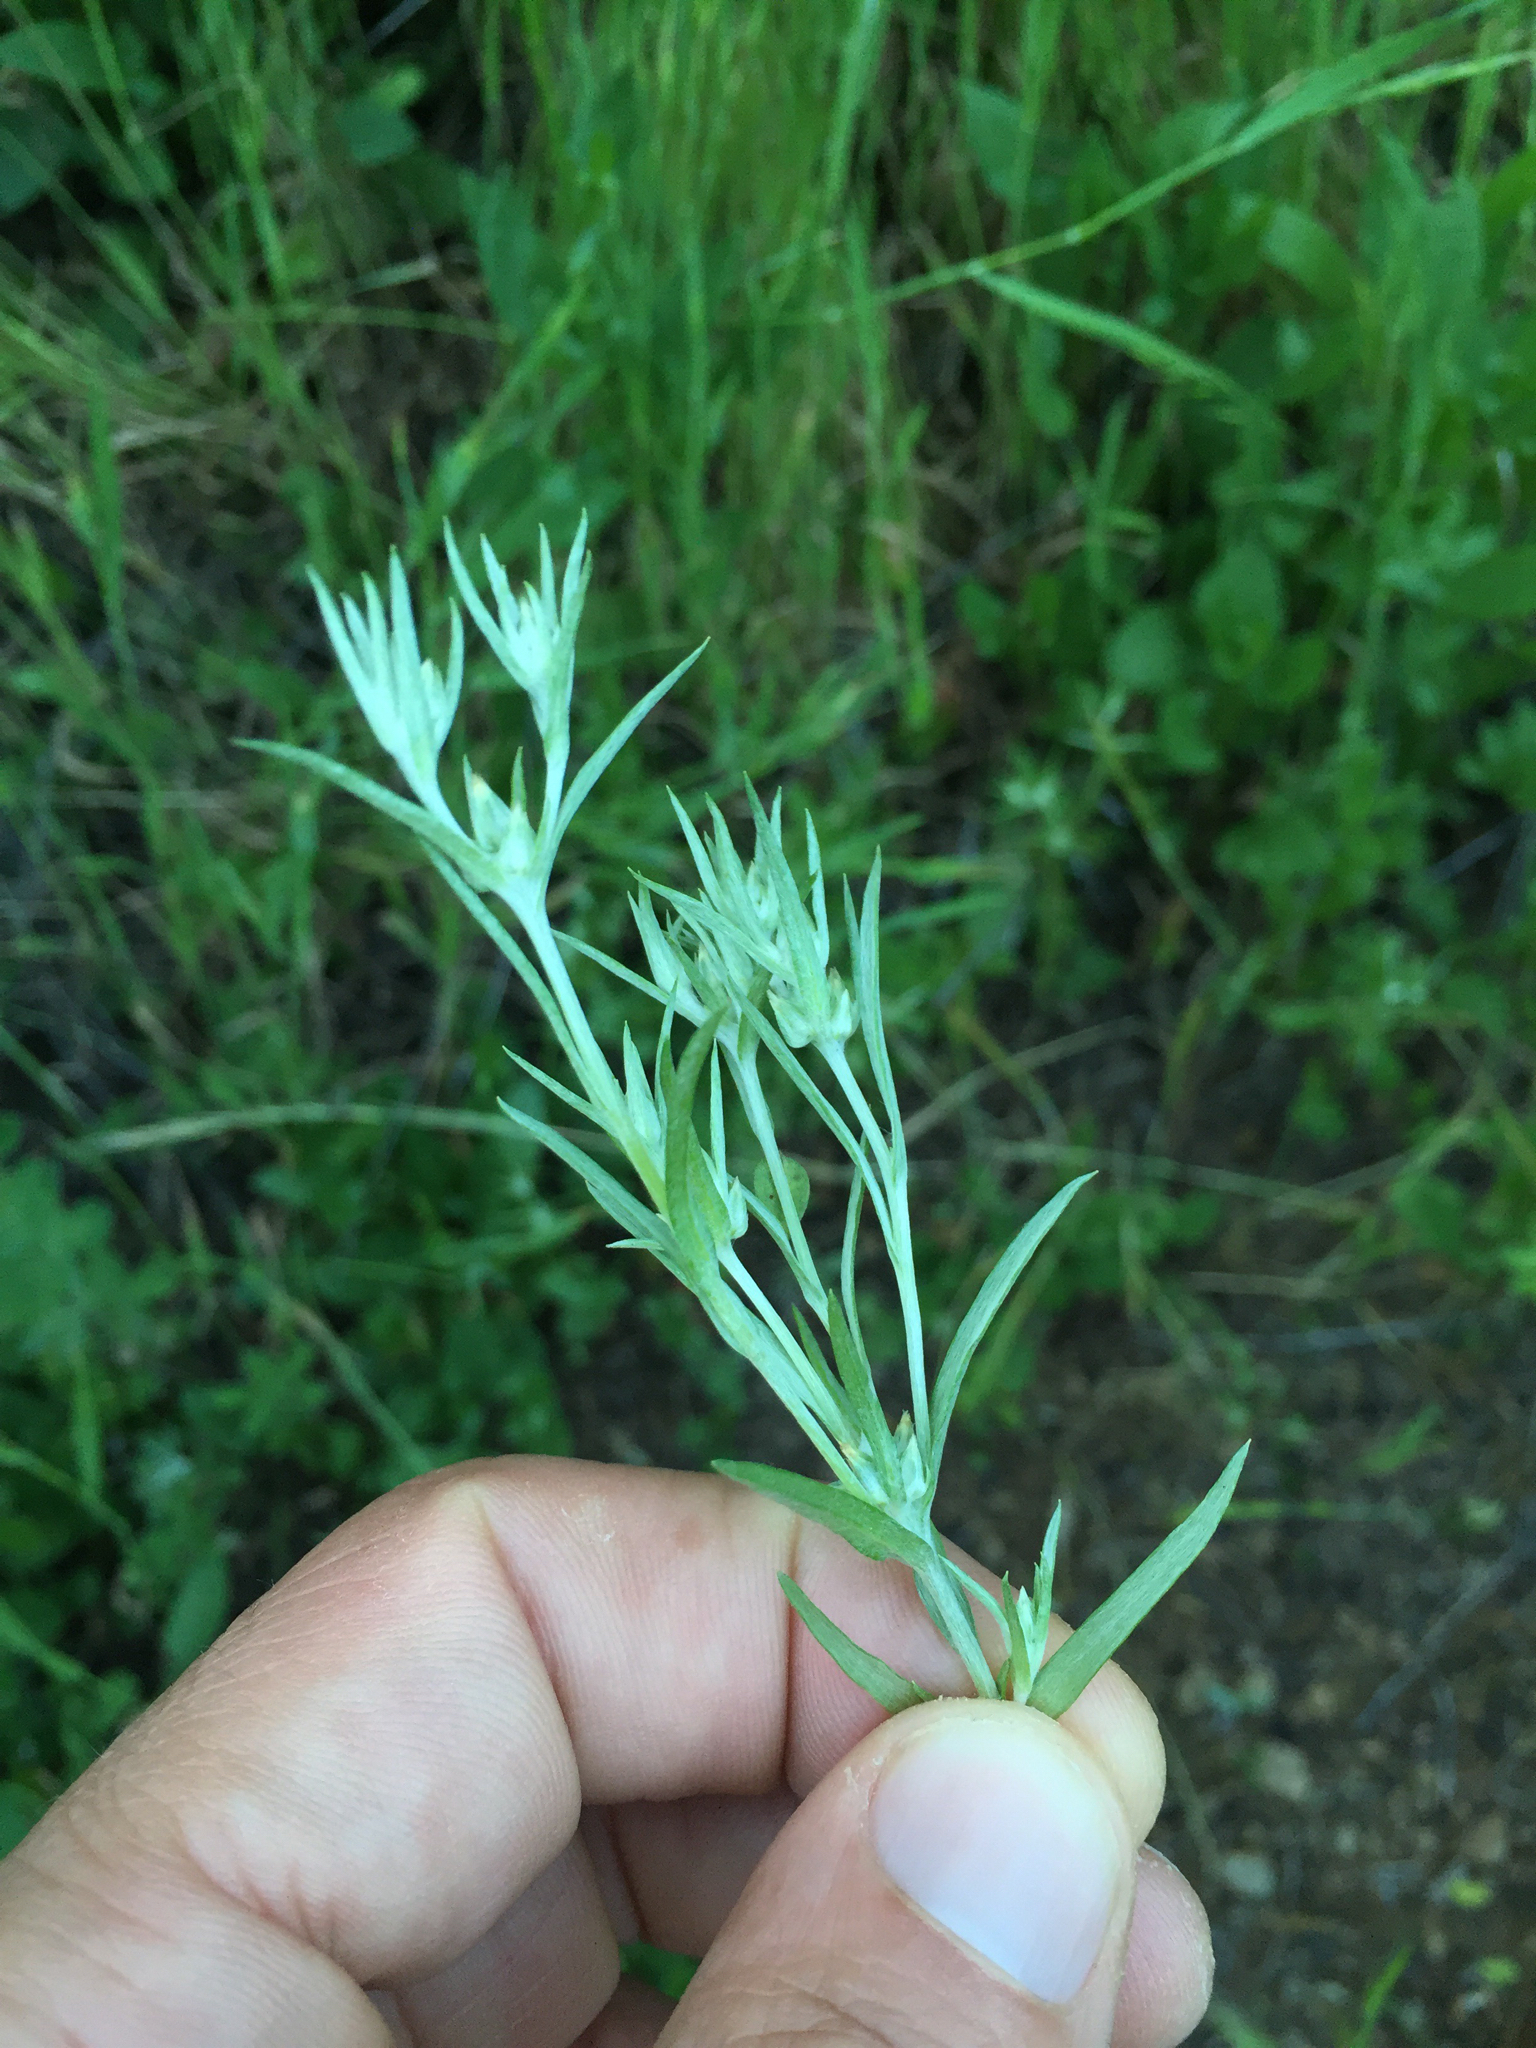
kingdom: Plantae
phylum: Tracheophyta
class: Magnoliopsida
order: Asterales
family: Asteraceae
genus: Logfia
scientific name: Logfia gallica
